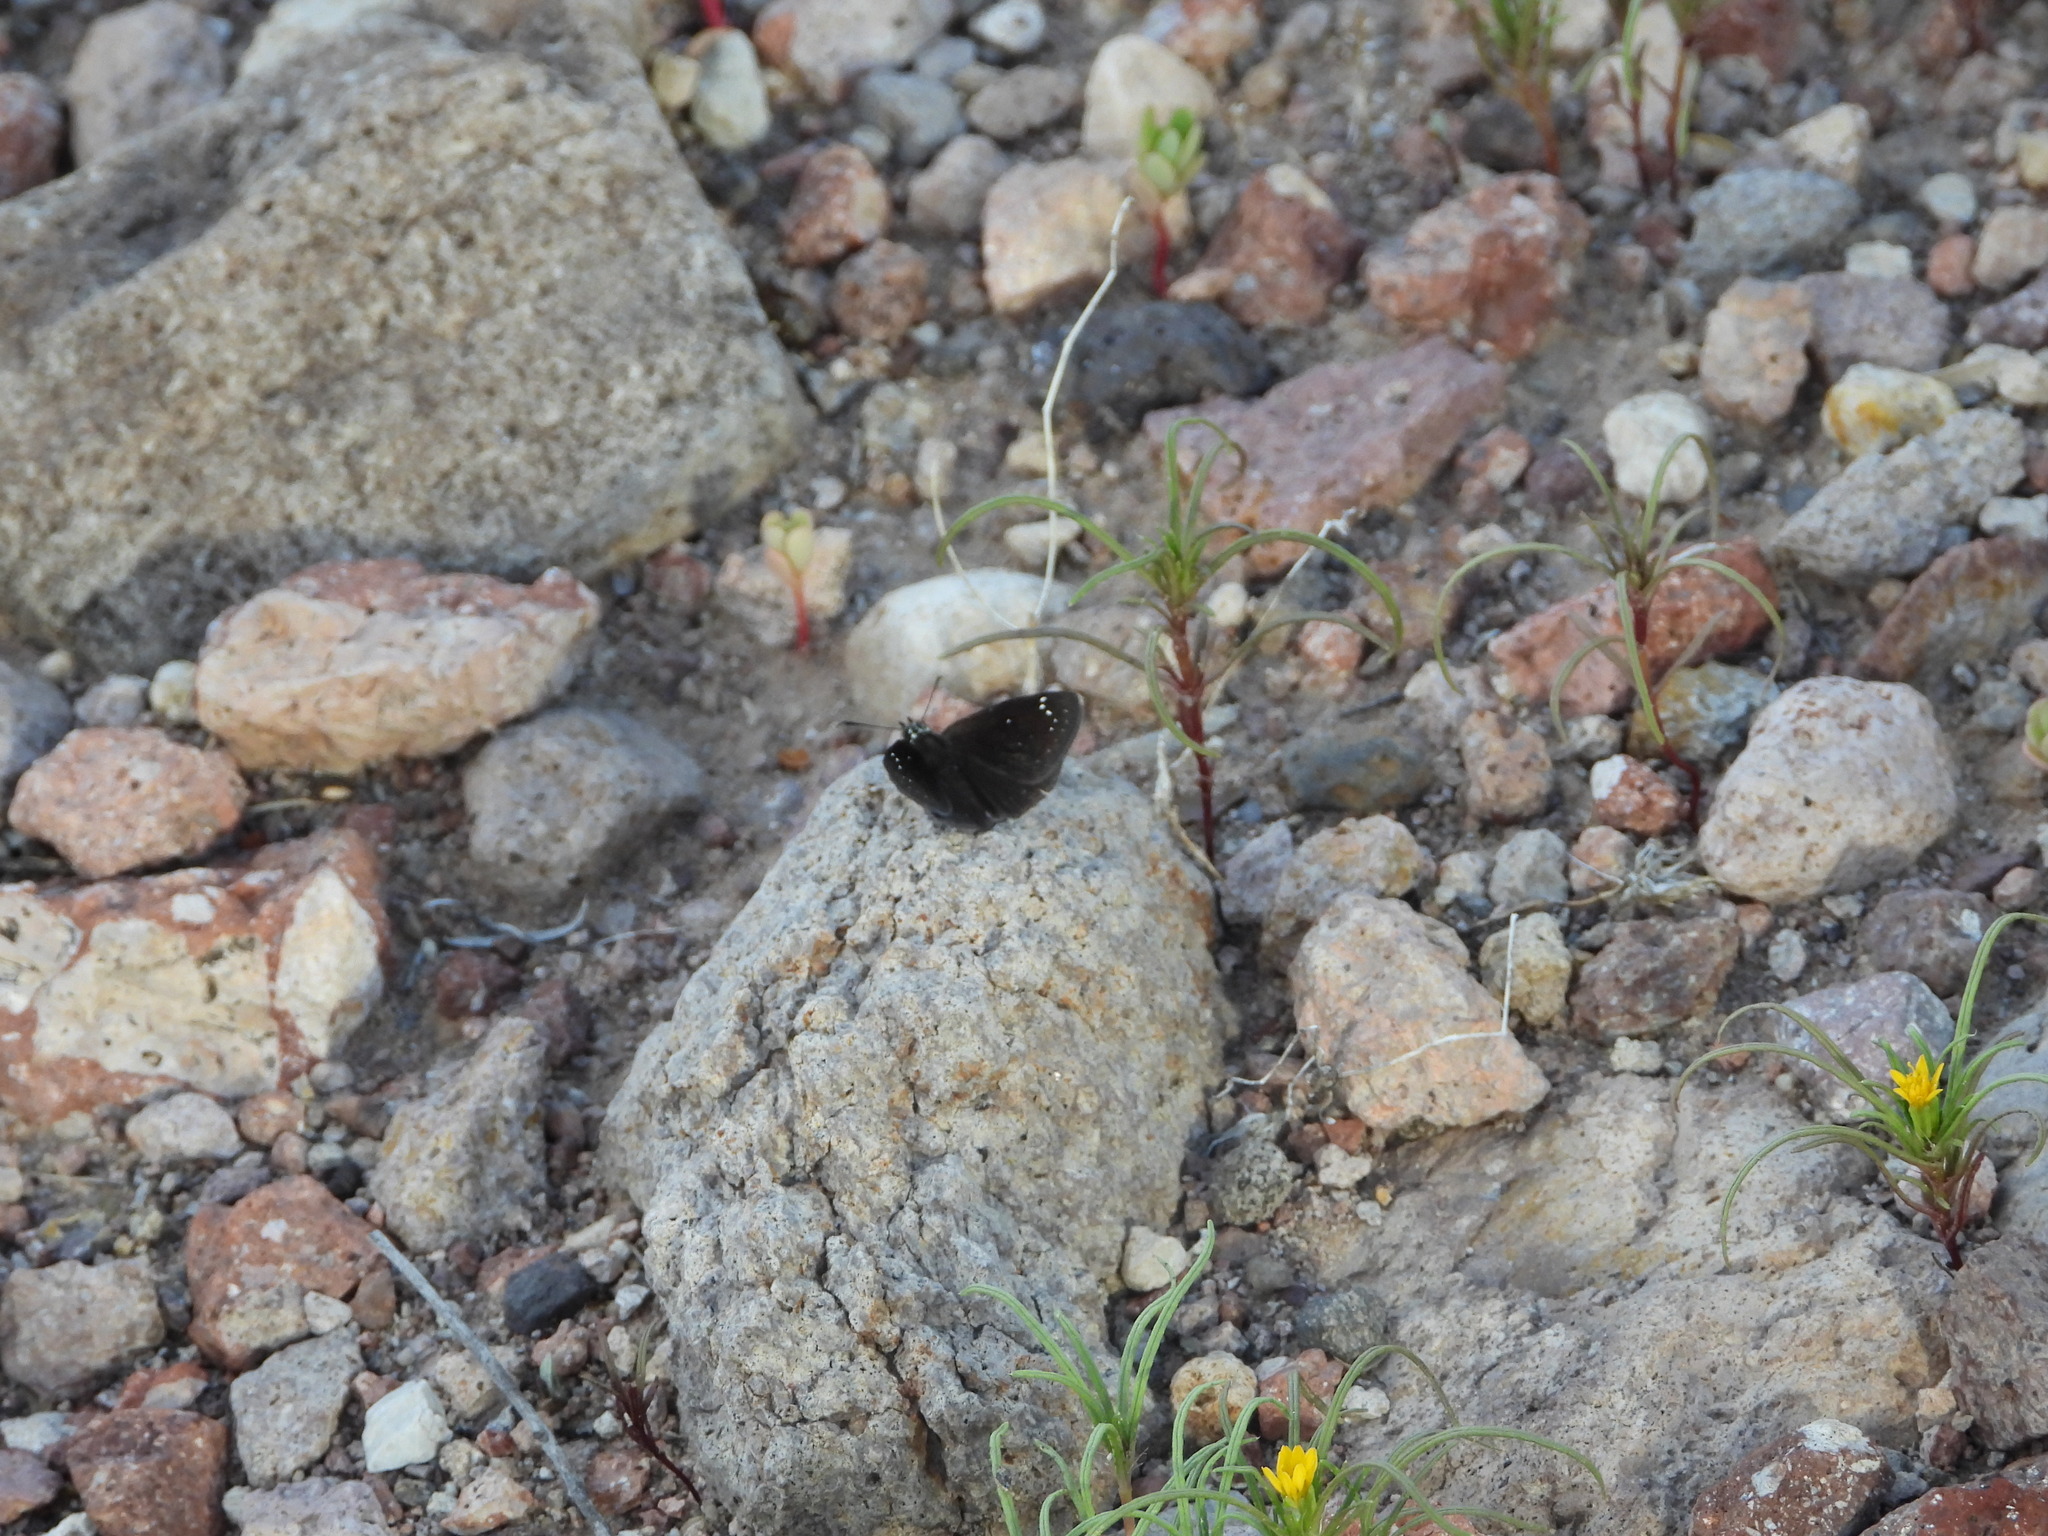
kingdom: Animalia
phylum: Arthropoda
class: Insecta
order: Lepidoptera
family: Hesperiidae
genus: Pholisora
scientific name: Pholisora catullus
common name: Common sootywing
